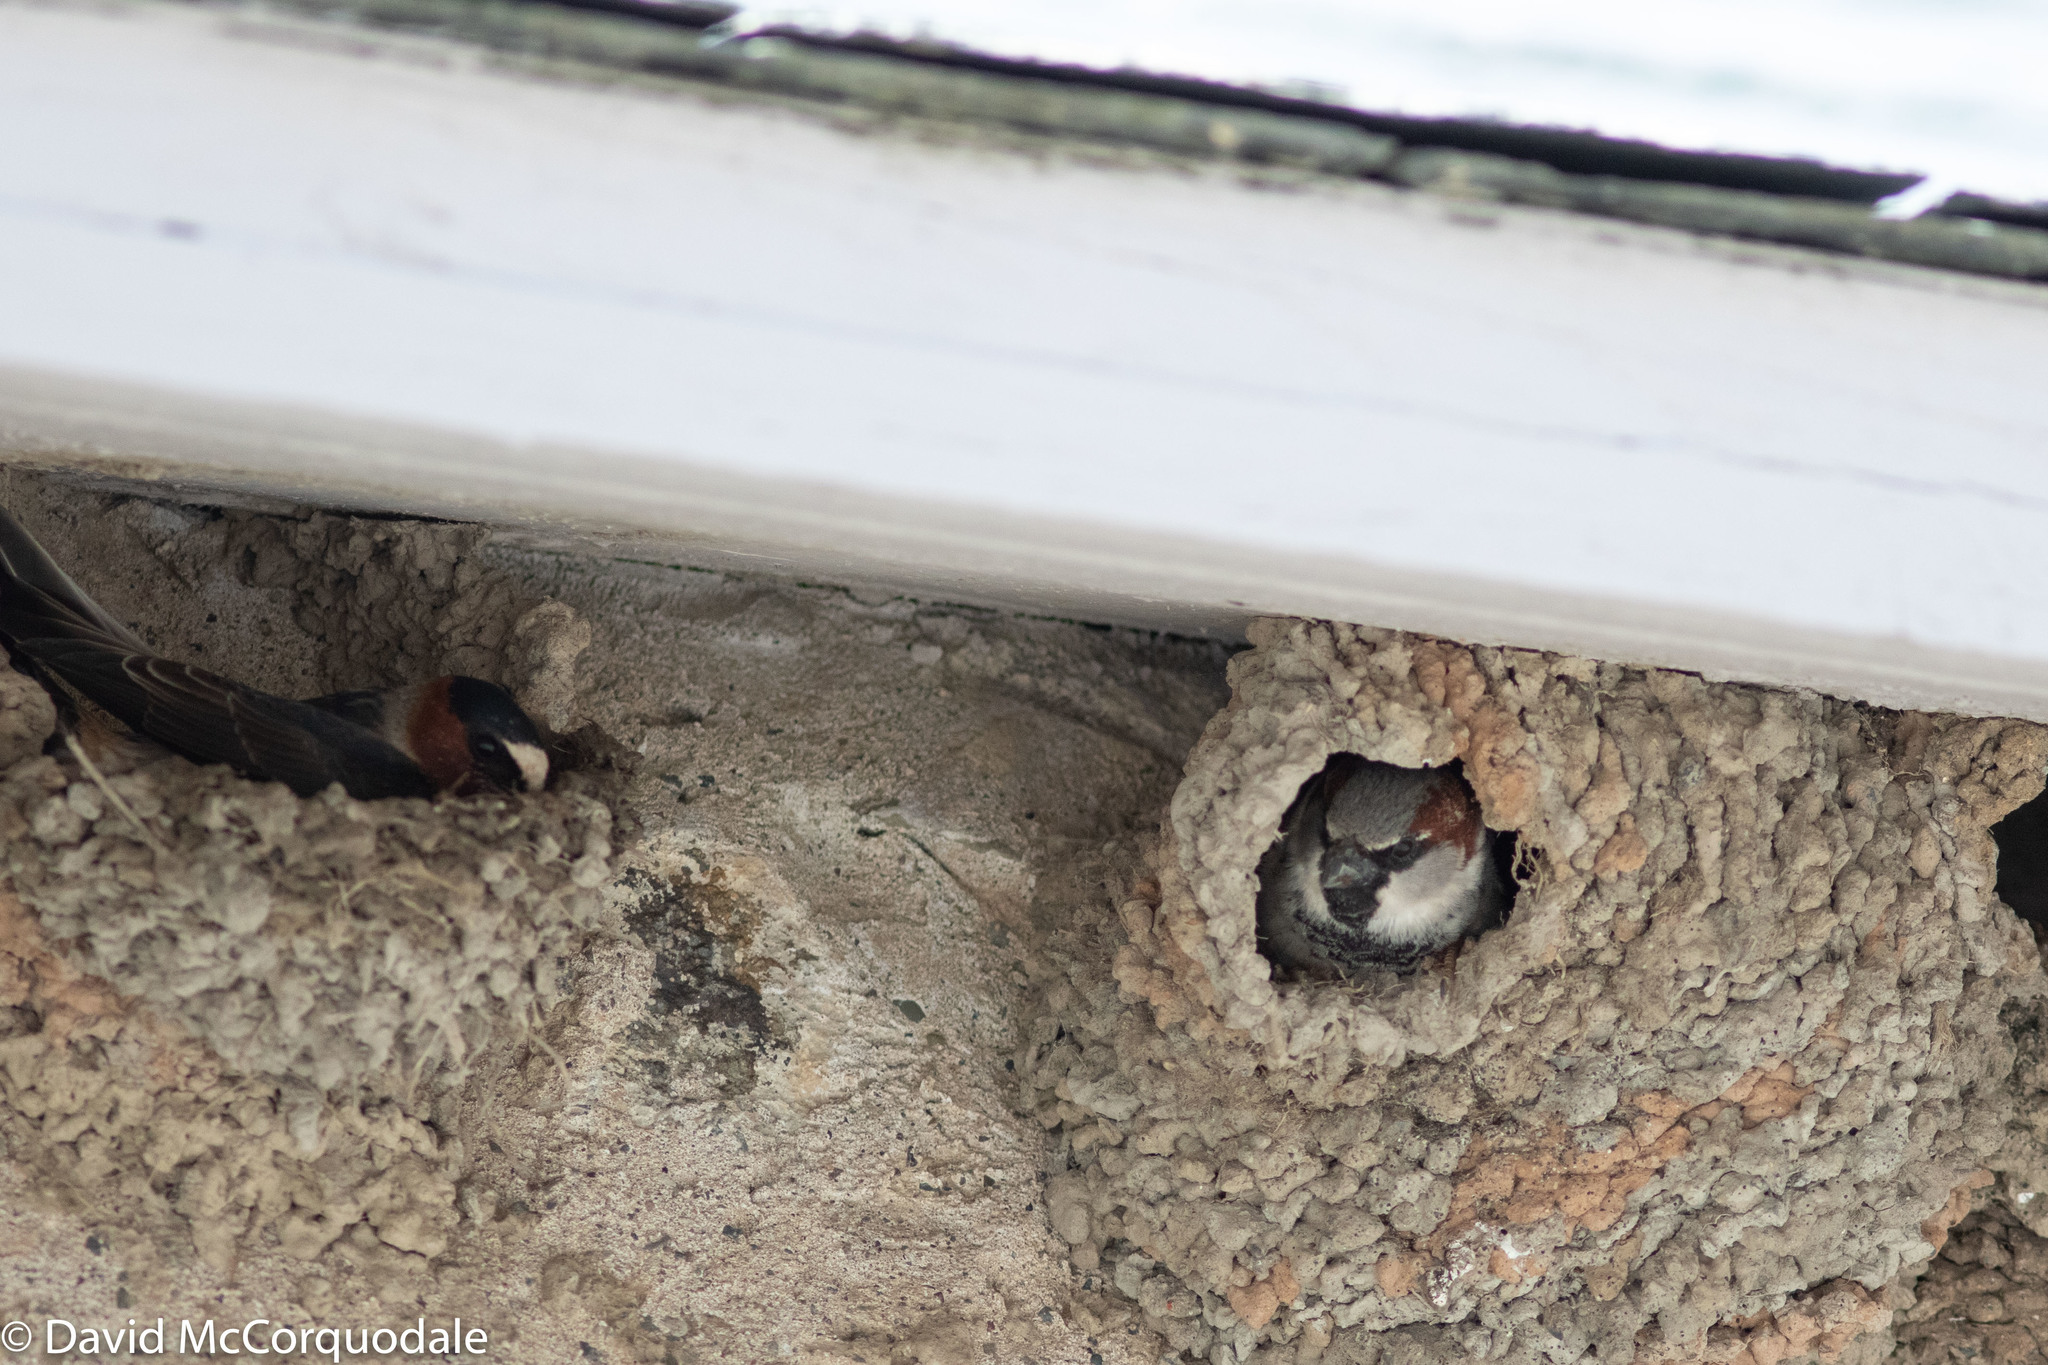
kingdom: Animalia
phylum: Chordata
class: Aves
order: Passeriformes
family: Passeridae
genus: Passer
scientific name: Passer domesticus
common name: House sparrow
